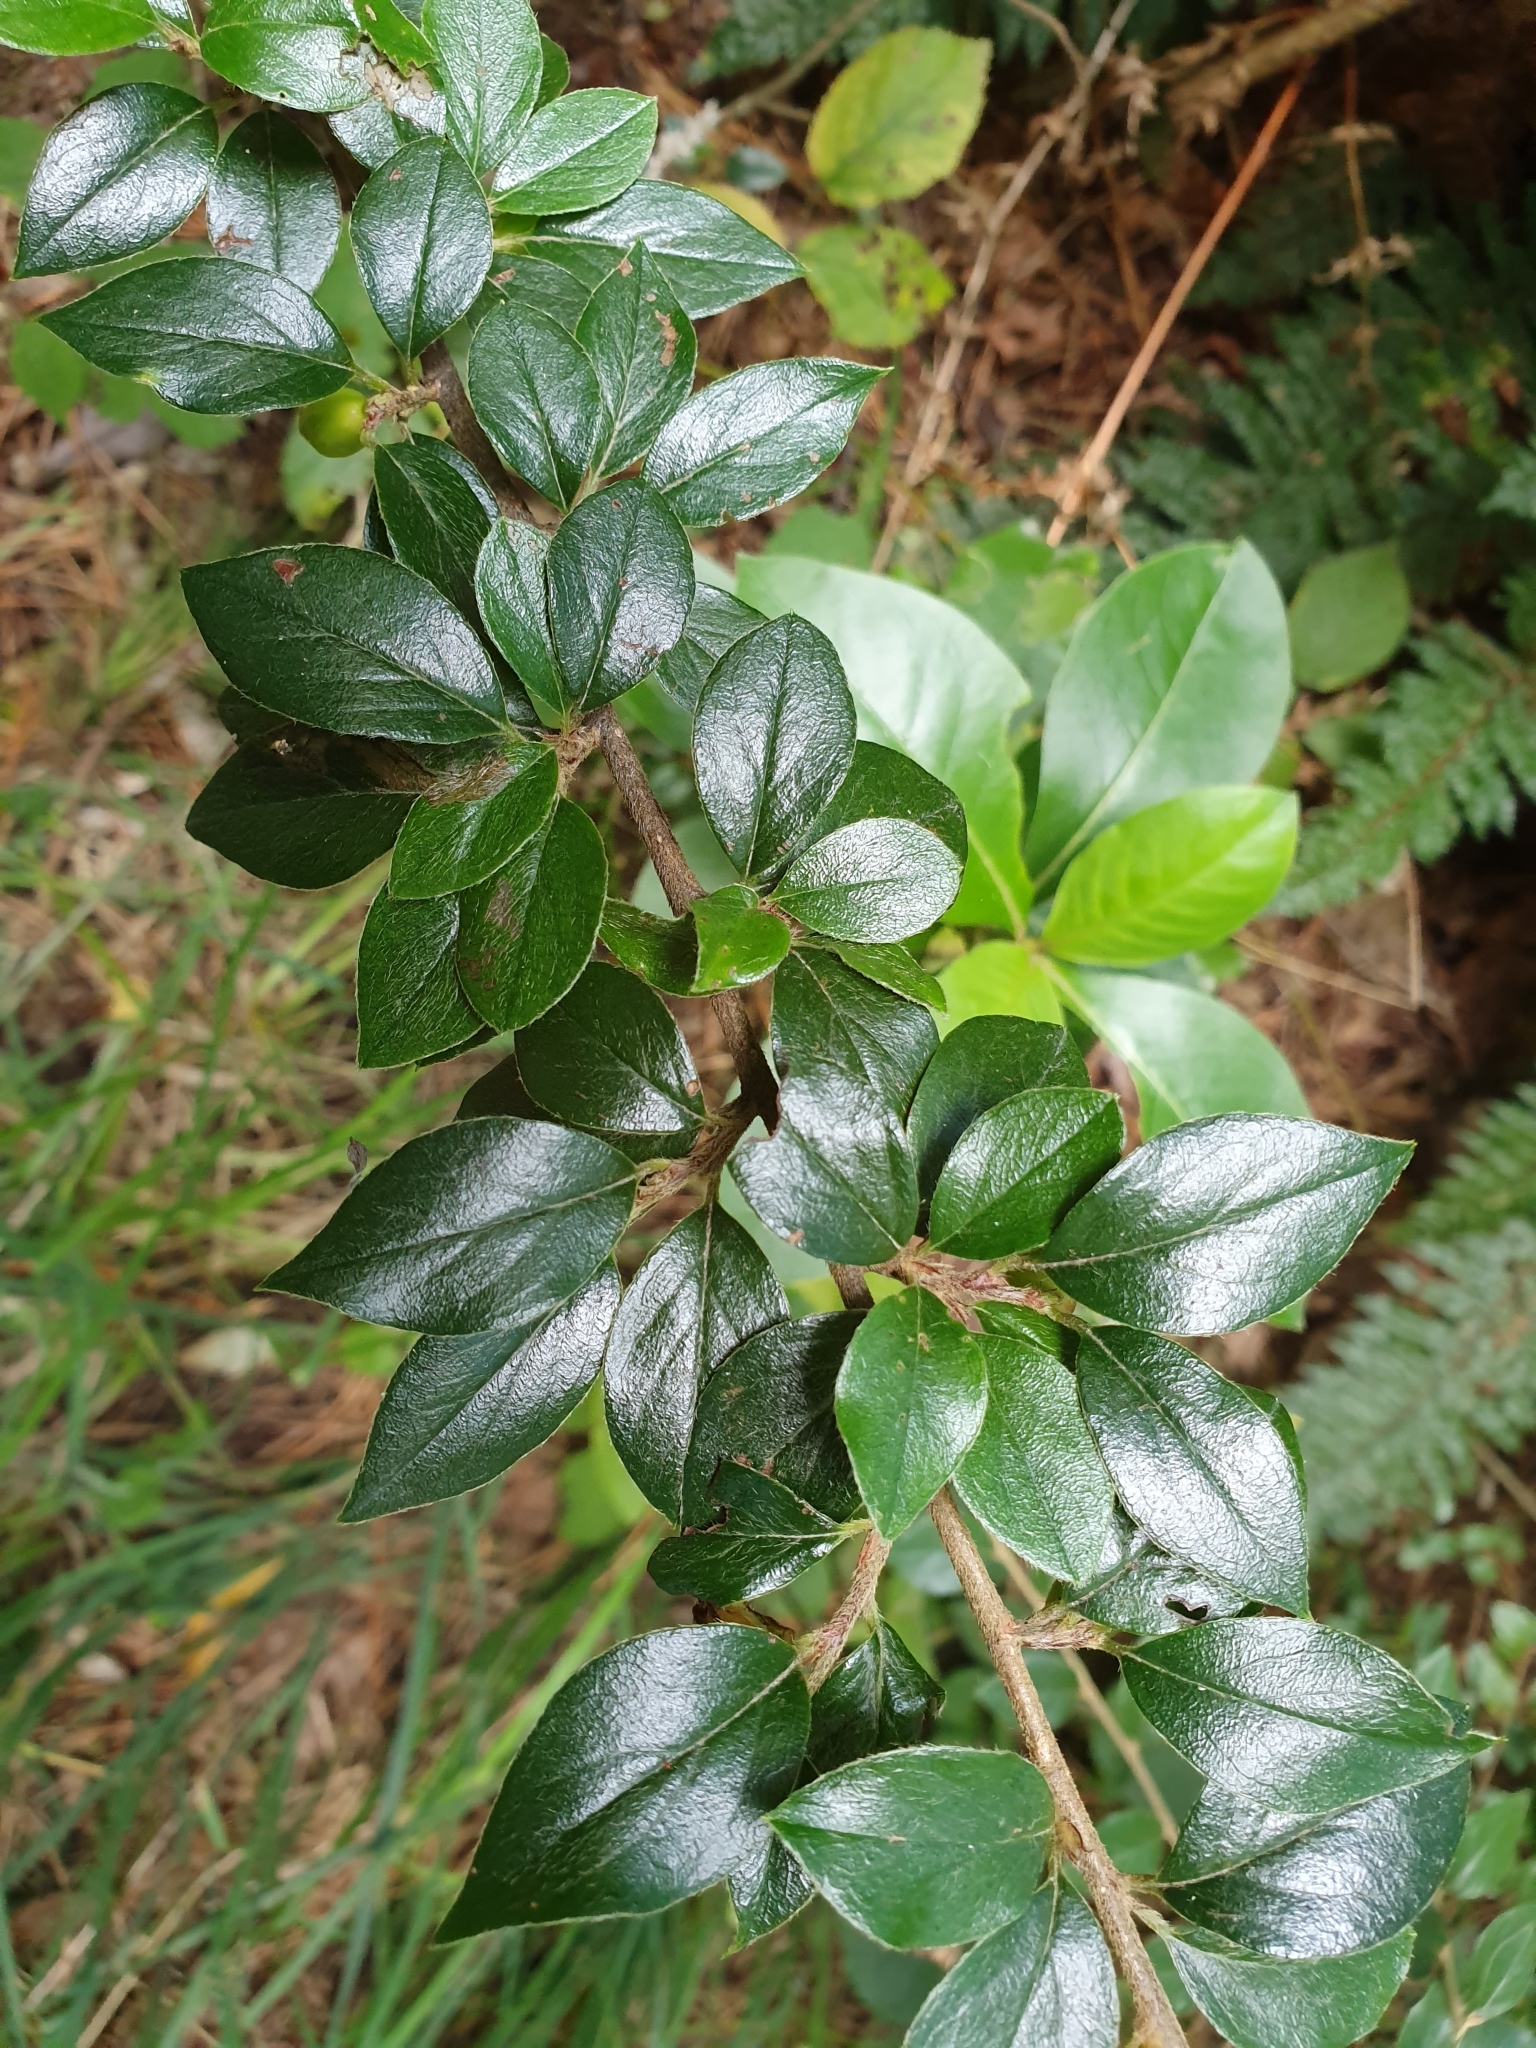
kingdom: Plantae
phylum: Tracheophyta
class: Magnoliopsida
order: Rosales
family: Rosaceae
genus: Cotoneaster
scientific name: Cotoneaster simonsii
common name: Himalayan cotoneaster
